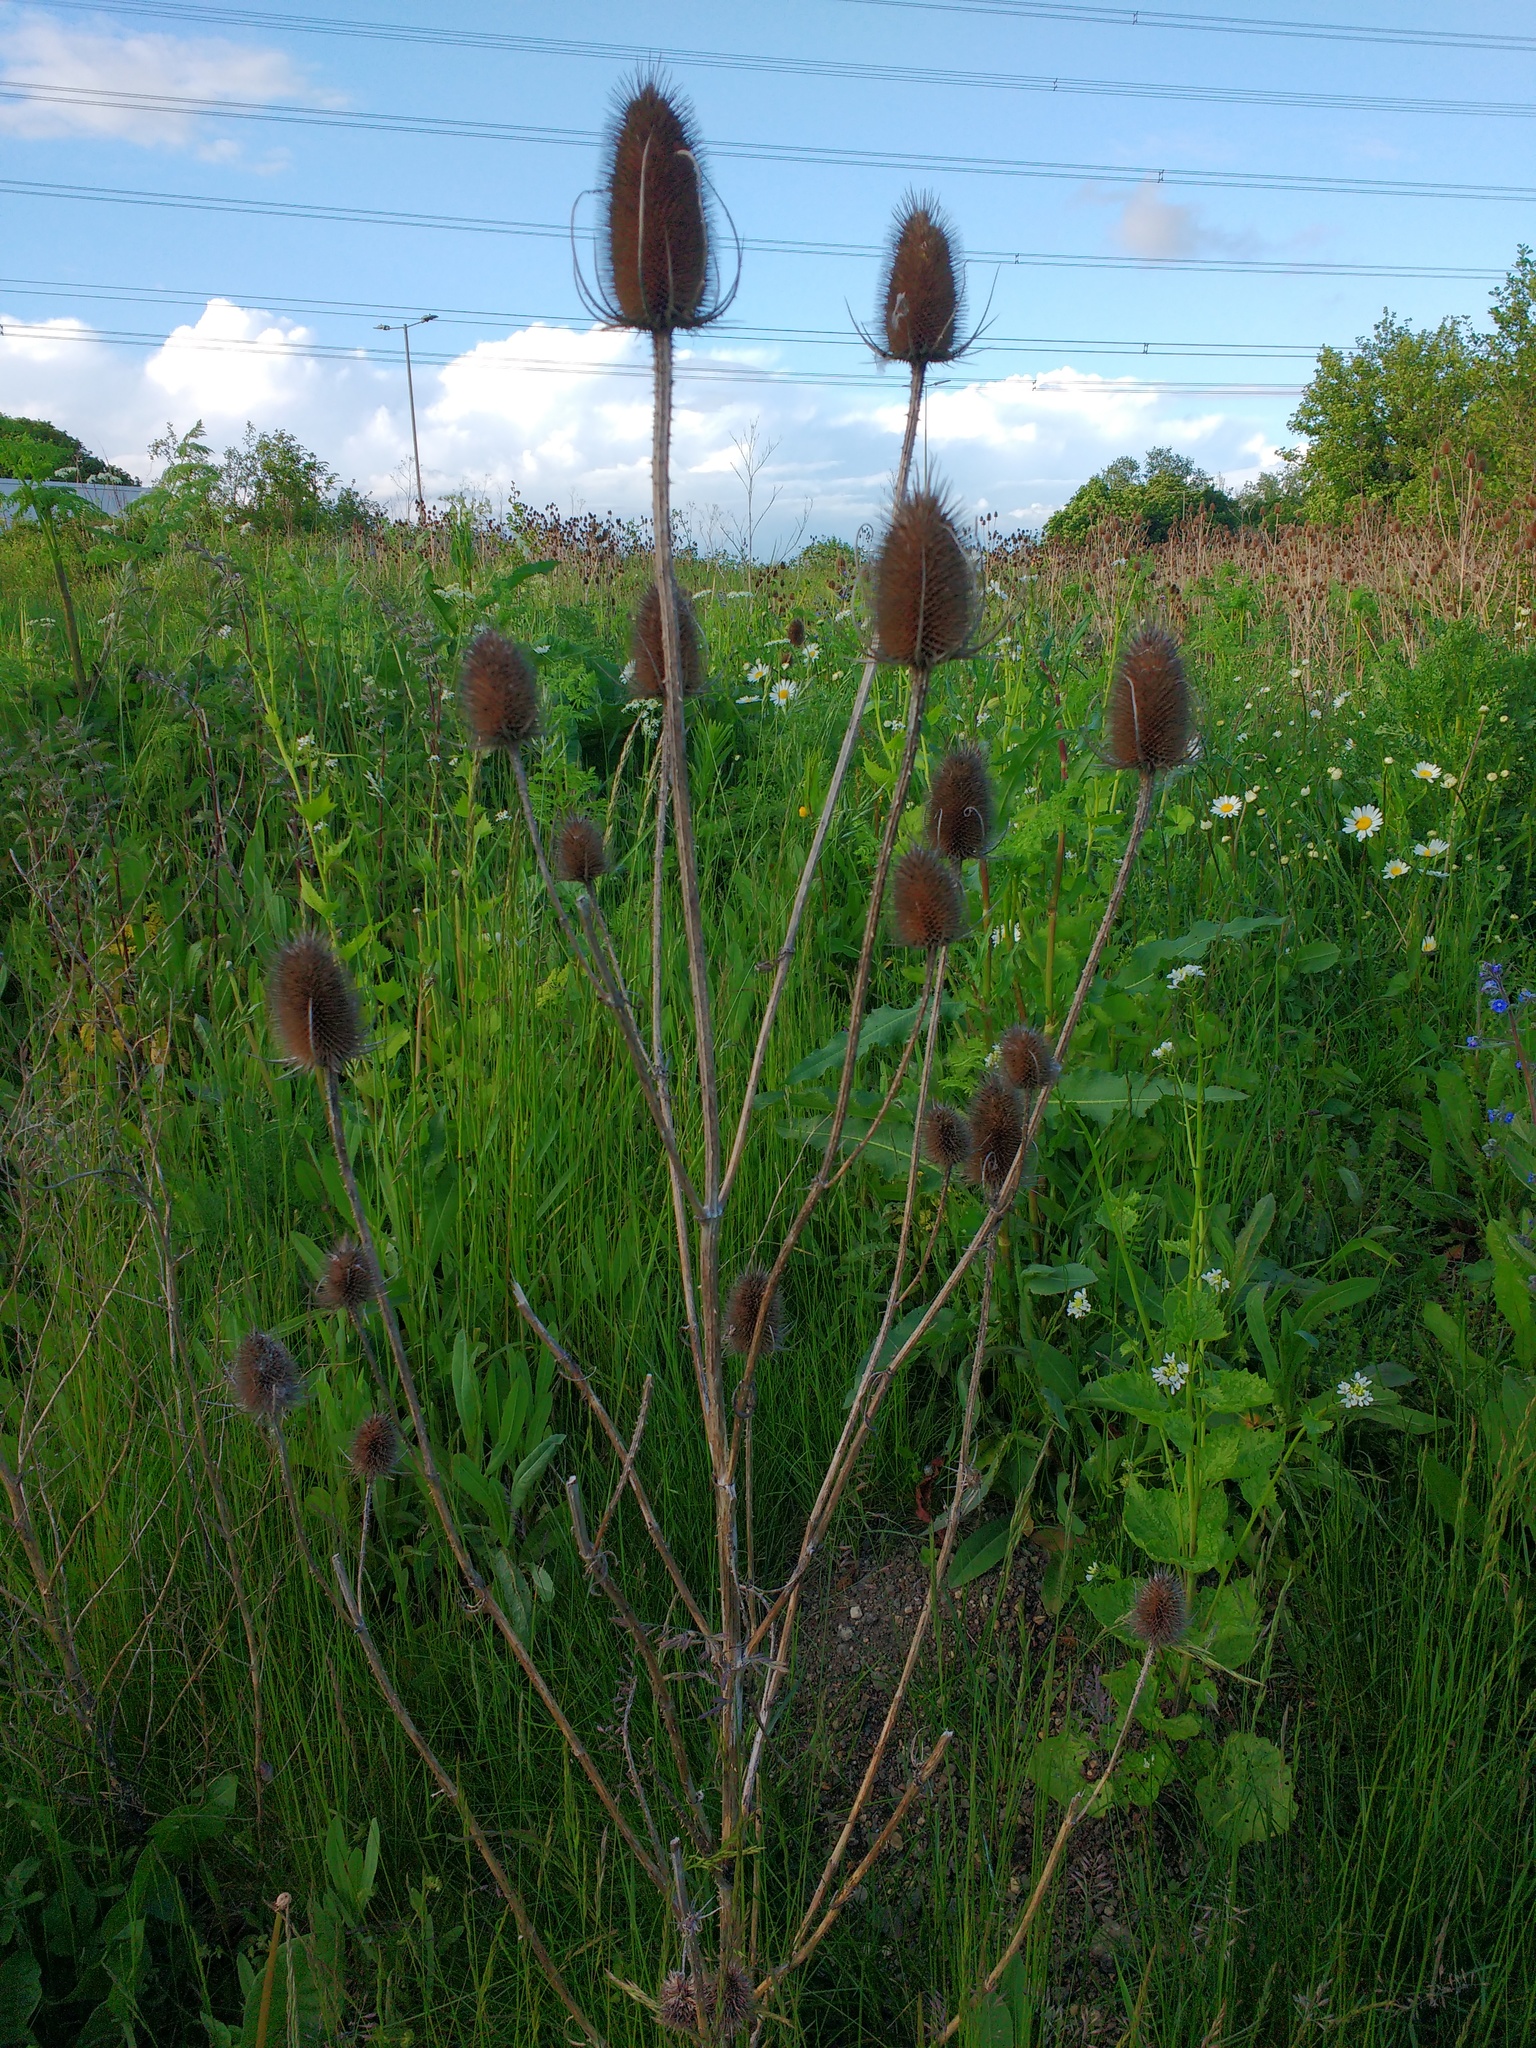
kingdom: Plantae
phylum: Tracheophyta
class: Magnoliopsida
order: Dipsacales
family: Caprifoliaceae
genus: Dipsacus
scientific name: Dipsacus fullonum
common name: Teasel
